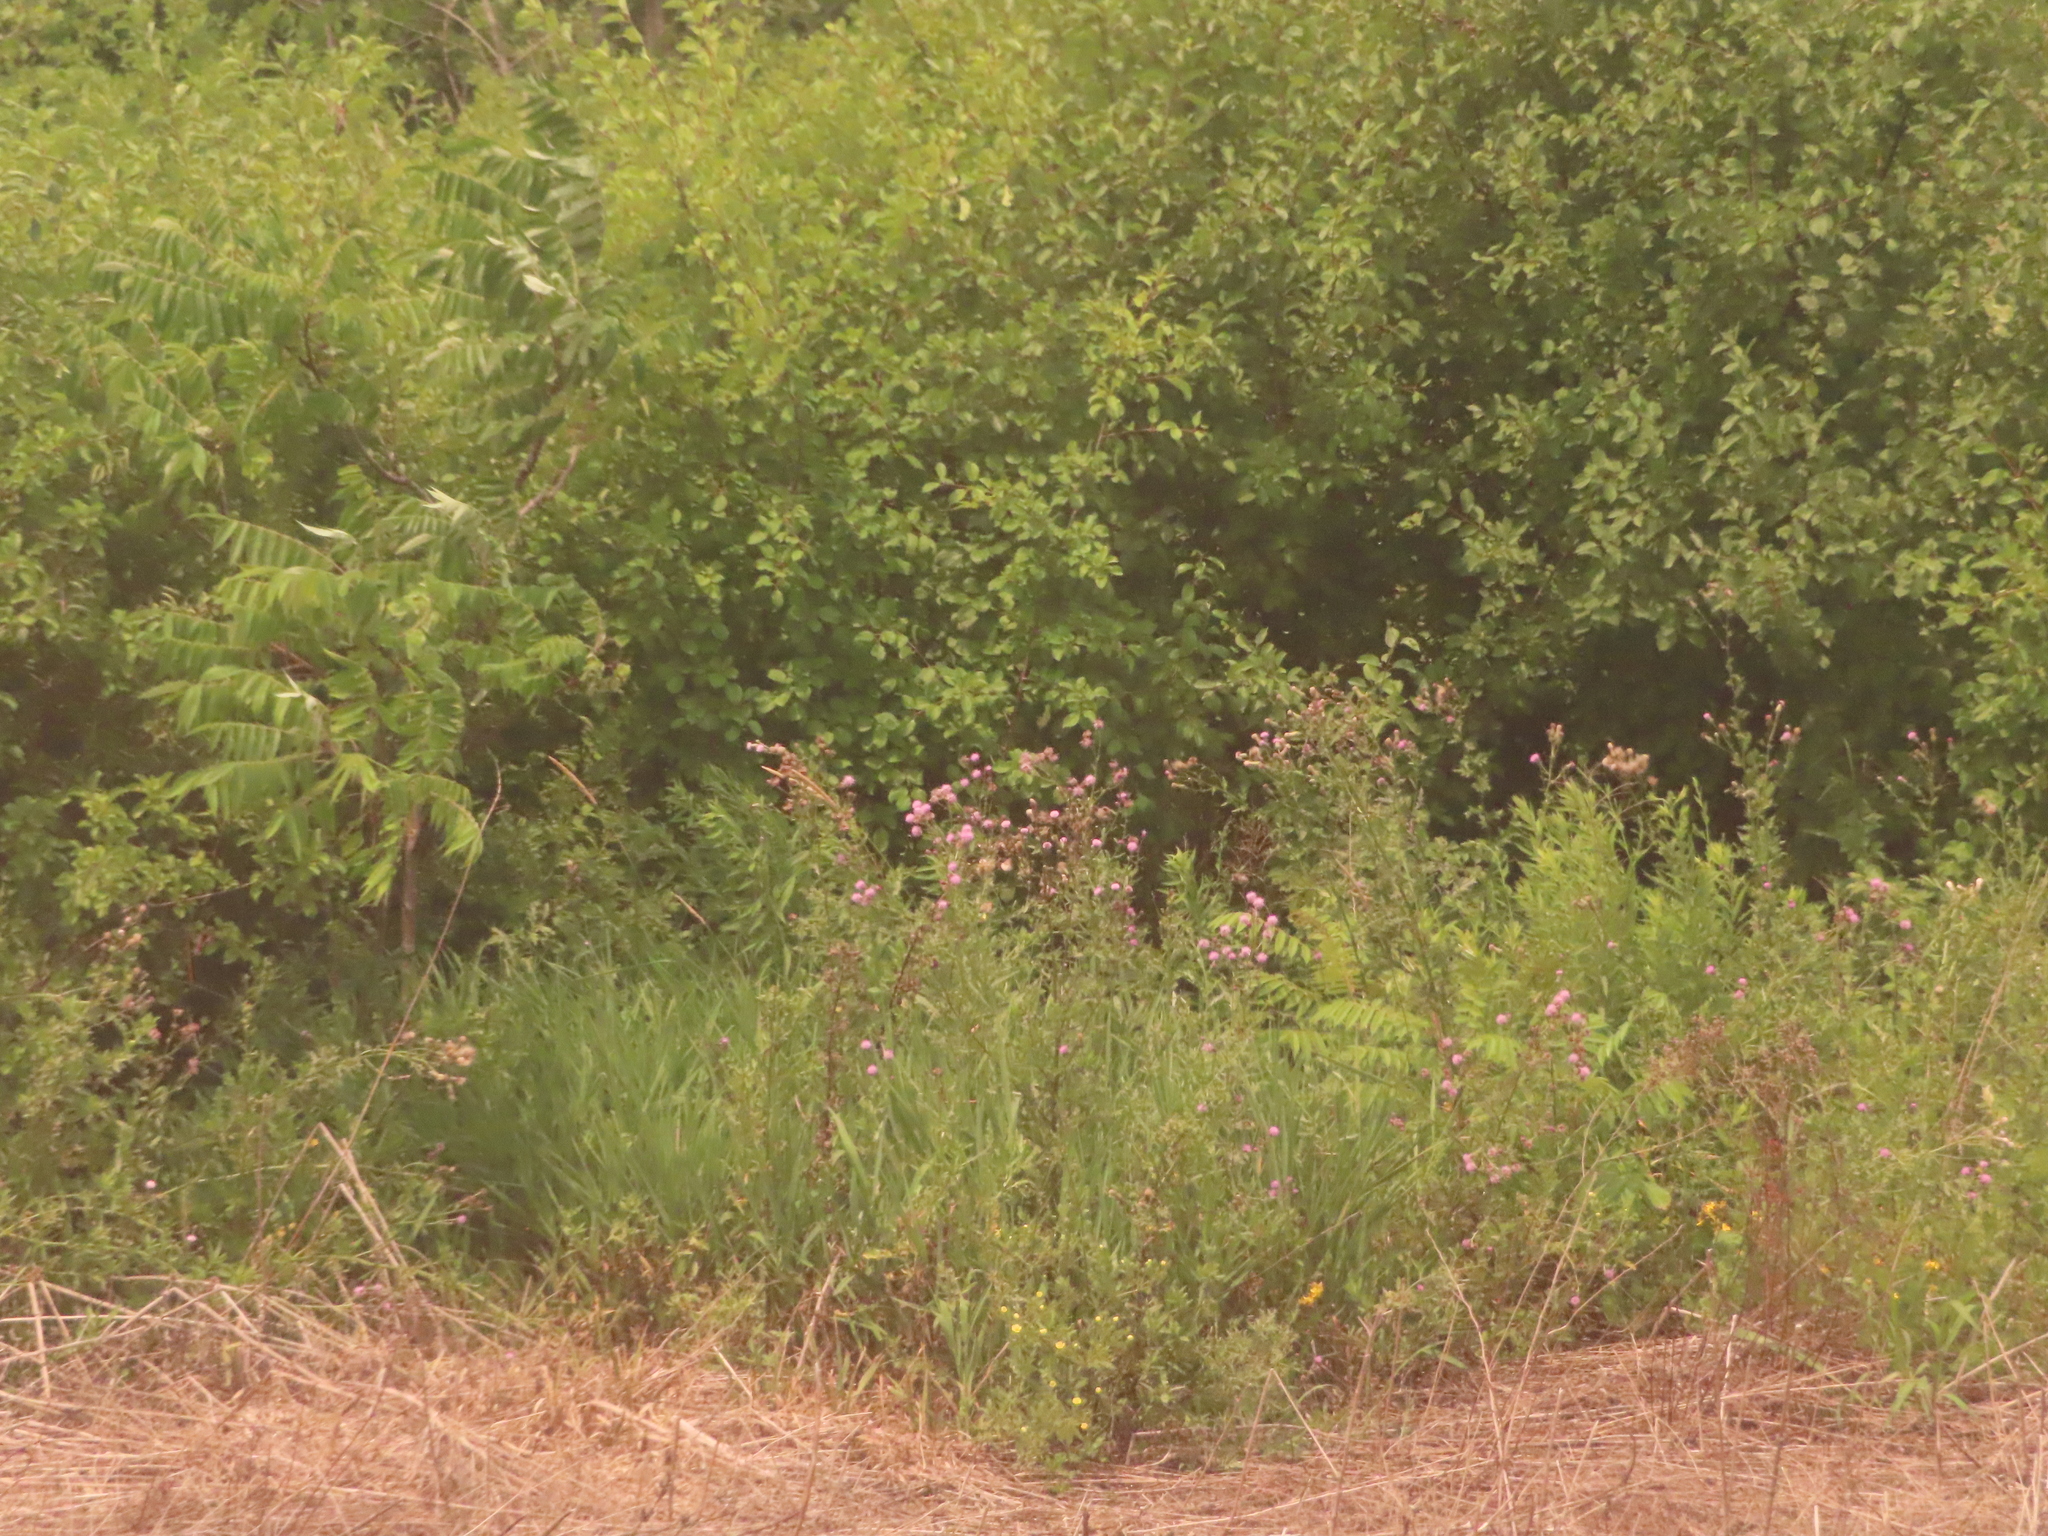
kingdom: Plantae
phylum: Tracheophyta
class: Magnoliopsida
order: Asterales
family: Asteraceae
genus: Cirsium
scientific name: Cirsium arvense
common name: Creeping thistle
